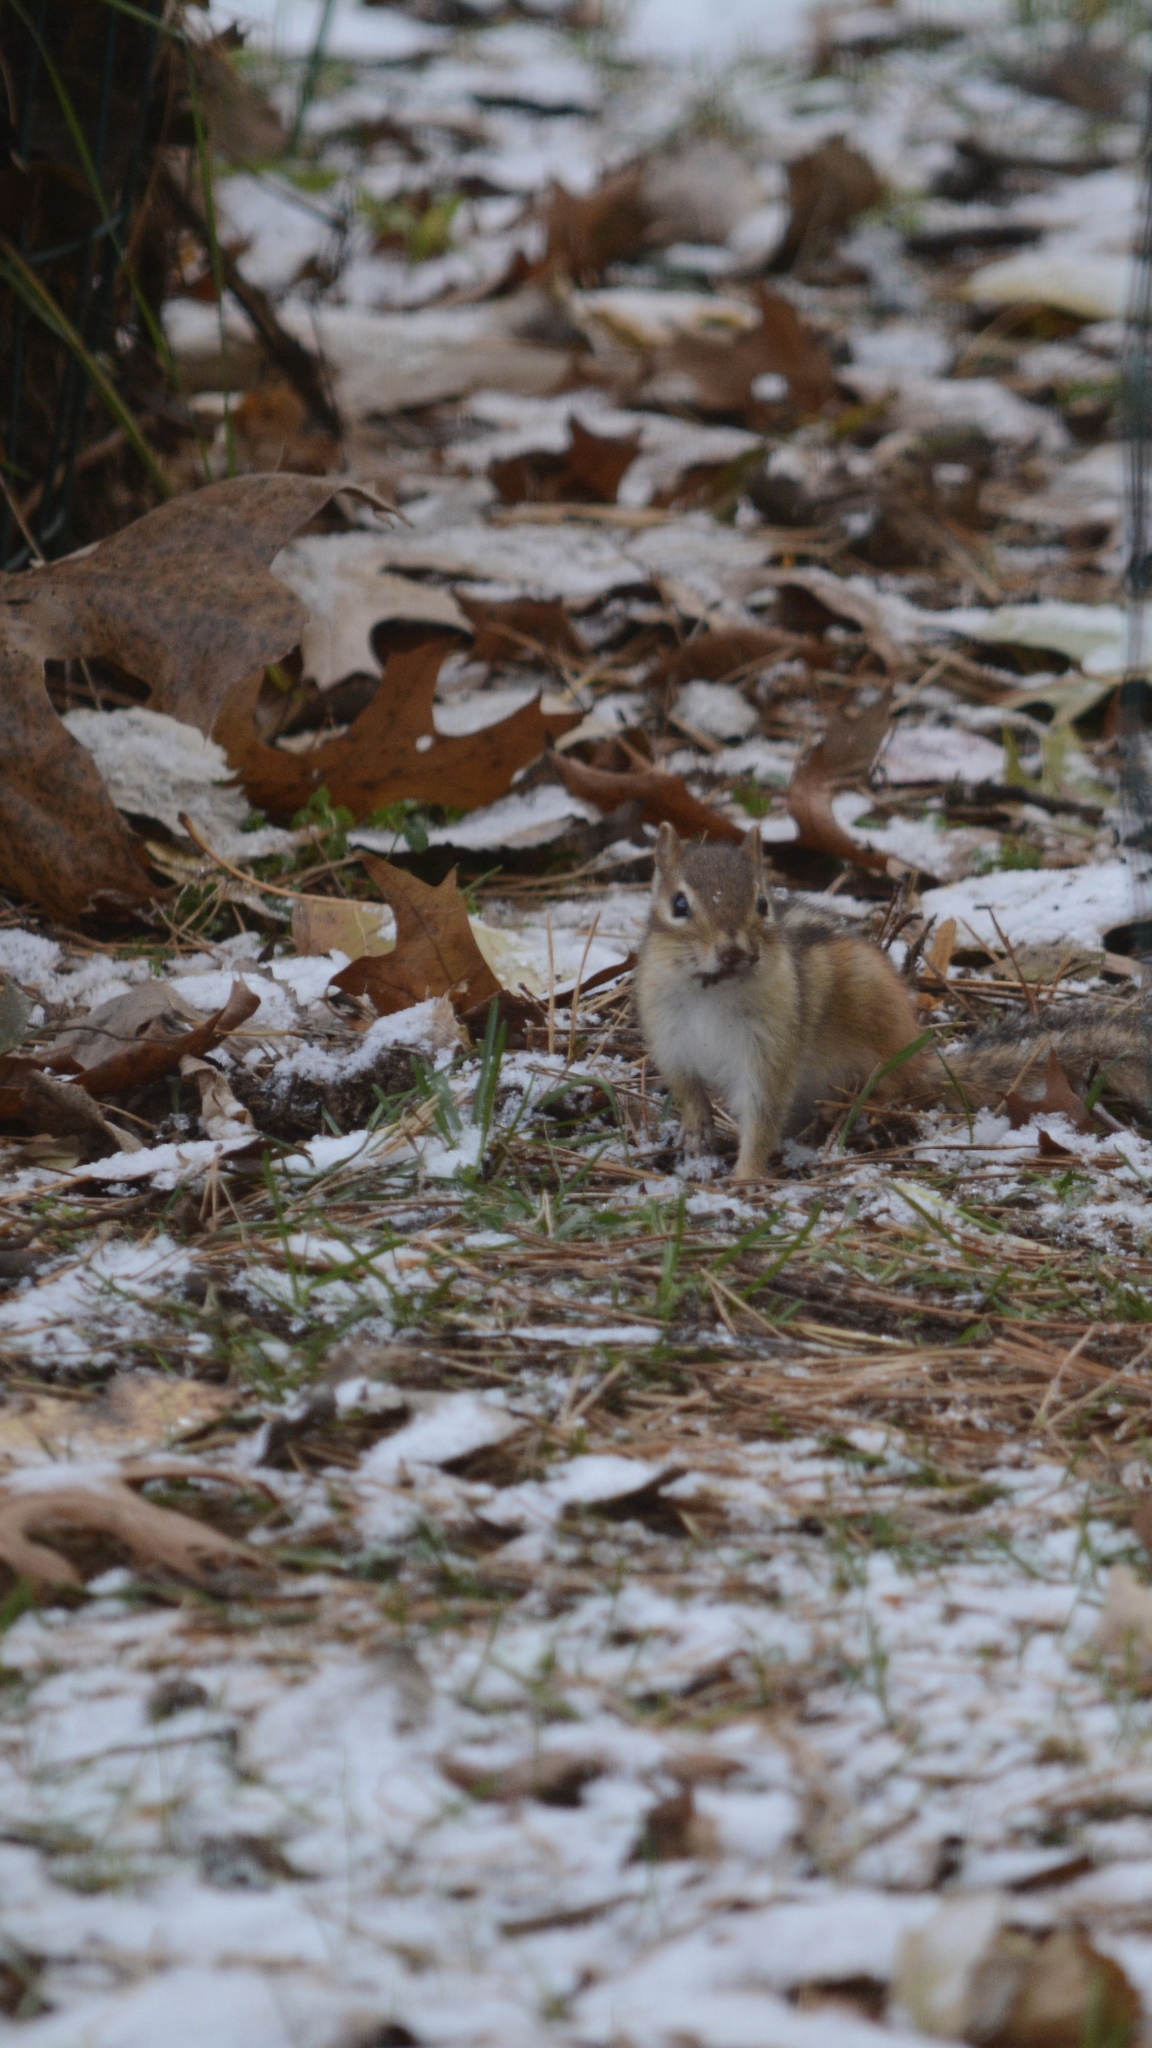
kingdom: Animalia
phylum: Chordata
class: Mammalia
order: Rodentia
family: Sciuridae
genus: Tamias
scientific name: Tamias striatus
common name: Eastern chipmunk
